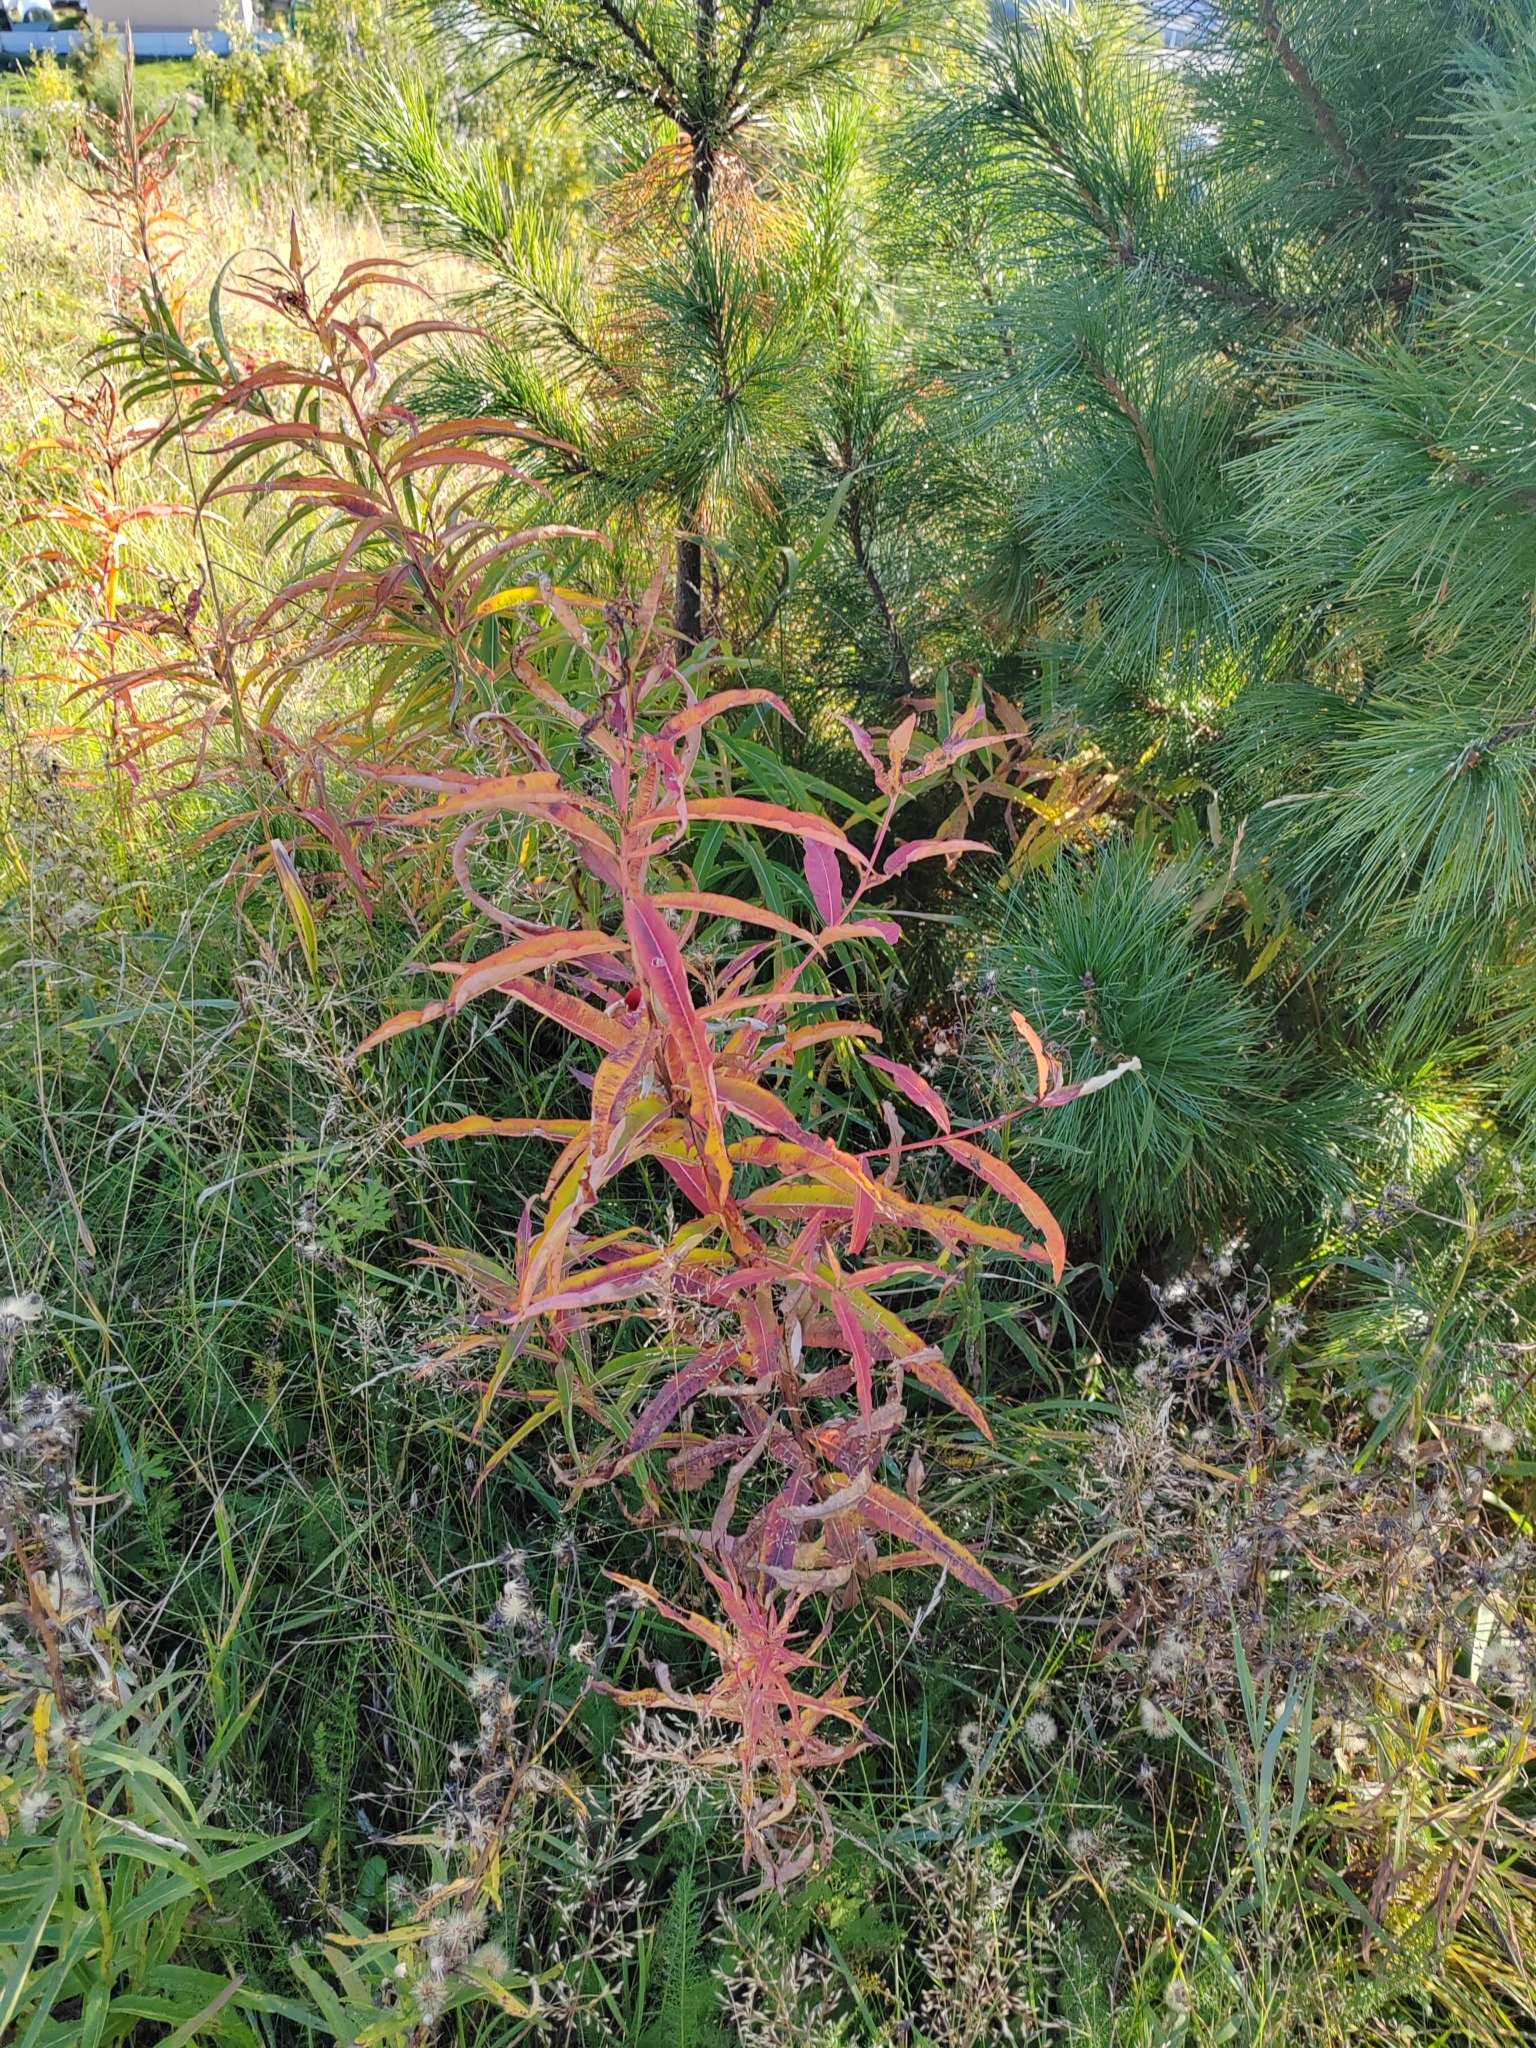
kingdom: Plantae
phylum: Tracheophyta
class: Magnoliopsida
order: Myrtales
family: Onagraceae
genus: Chamaenerion
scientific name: Chamaenerion angustifolium
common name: Fireweed
